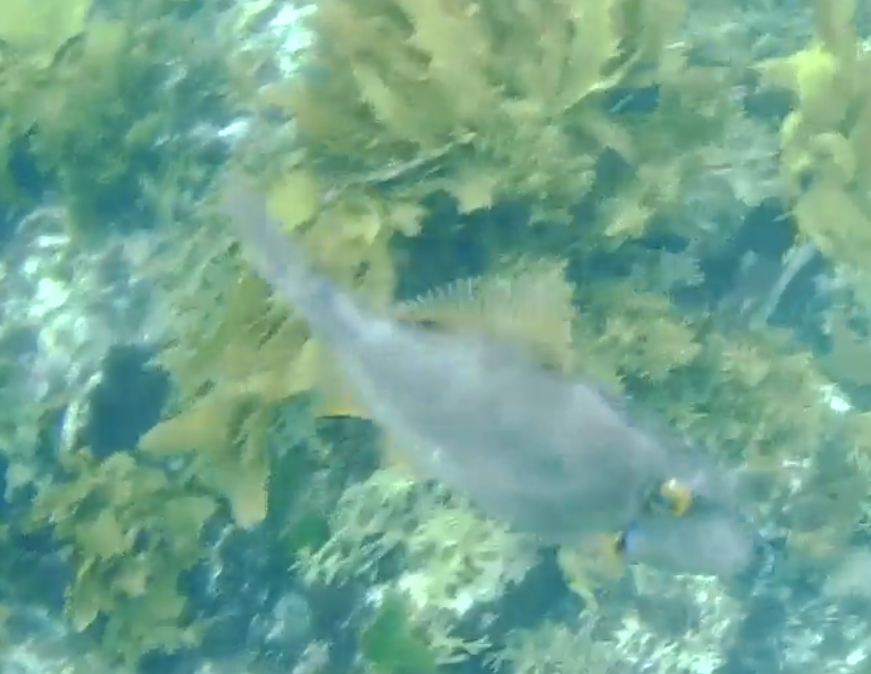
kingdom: Animalia
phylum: Chordata
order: Tetraodontiformes
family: Monacanthidae
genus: Meuschenia
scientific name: Meuschenia scaber
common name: Cosmopolitan leatherjacket
